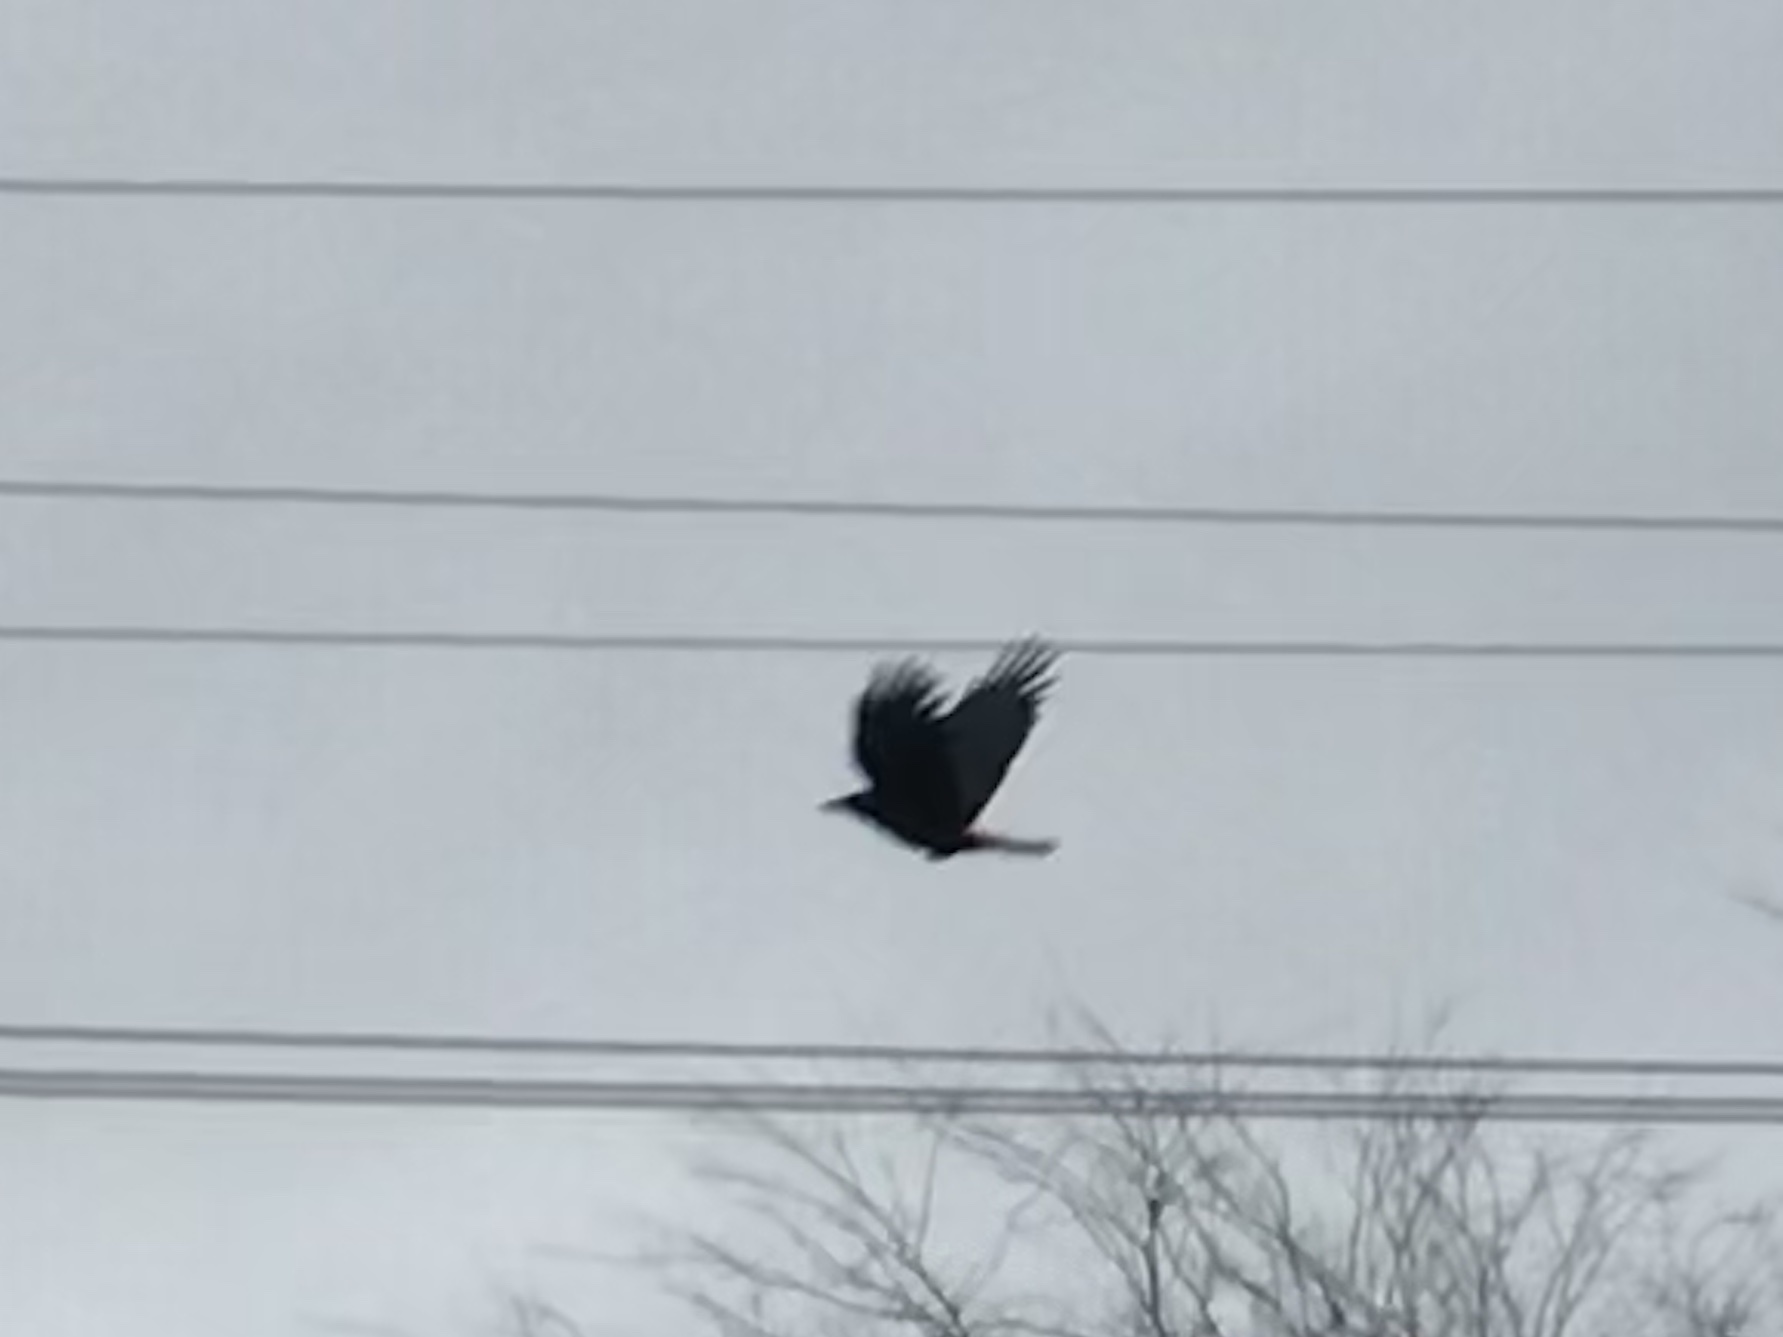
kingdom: Animalia
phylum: Chordata
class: Aves
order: Passeriformes
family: Corvidae
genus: Corvus
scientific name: Corvus brachyrhynchos
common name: American crow
